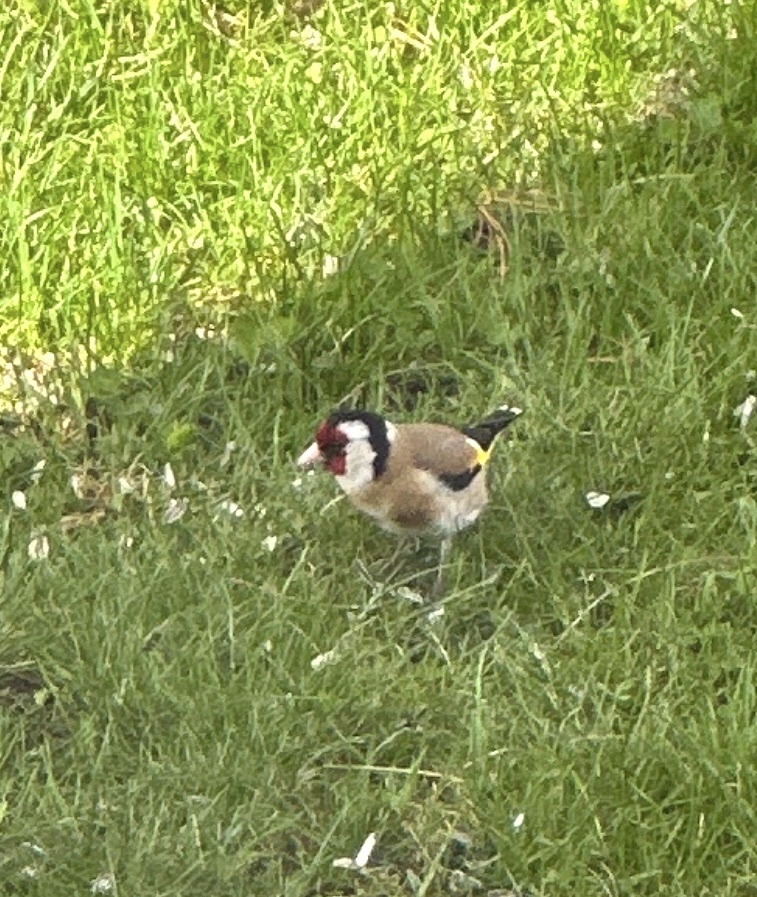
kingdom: Animalia
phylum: Chordata
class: Aves
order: Passeriformes
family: Fringillidae
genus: Carduelis
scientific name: Carduelis carduelis
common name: European goldfinch
